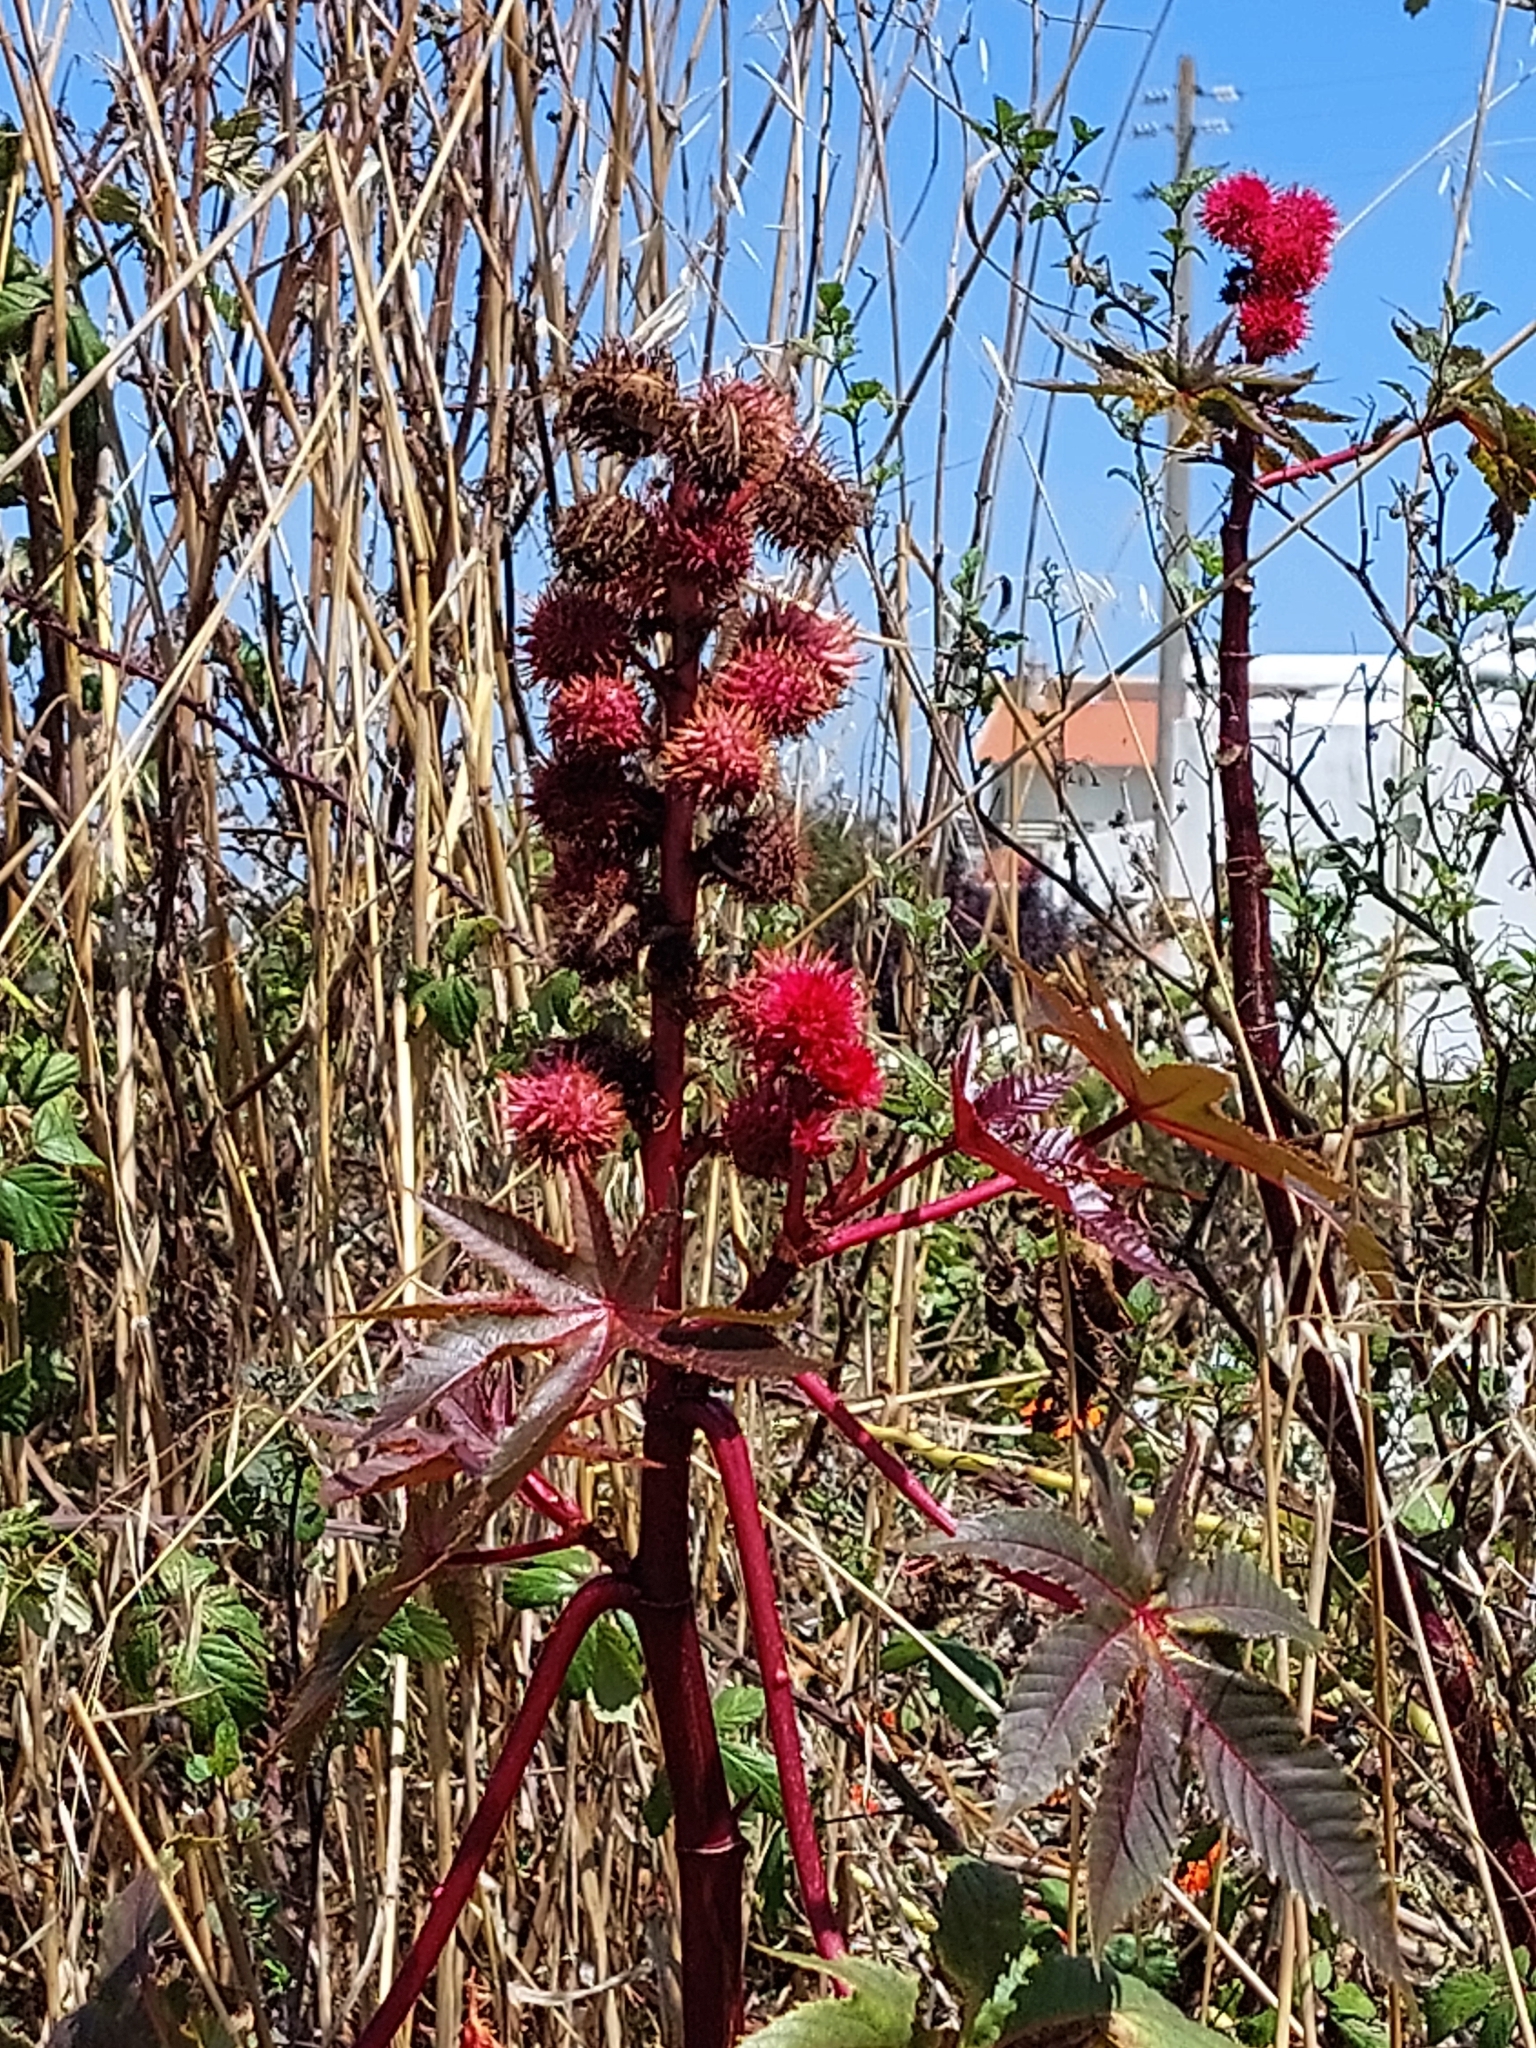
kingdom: Plantae
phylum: Tracheophyta
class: Magnoliopsida
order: Malpighiales
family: Euphorbiaceae
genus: Ricinus
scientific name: Ricinus communis
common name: Castor-oil-plant
